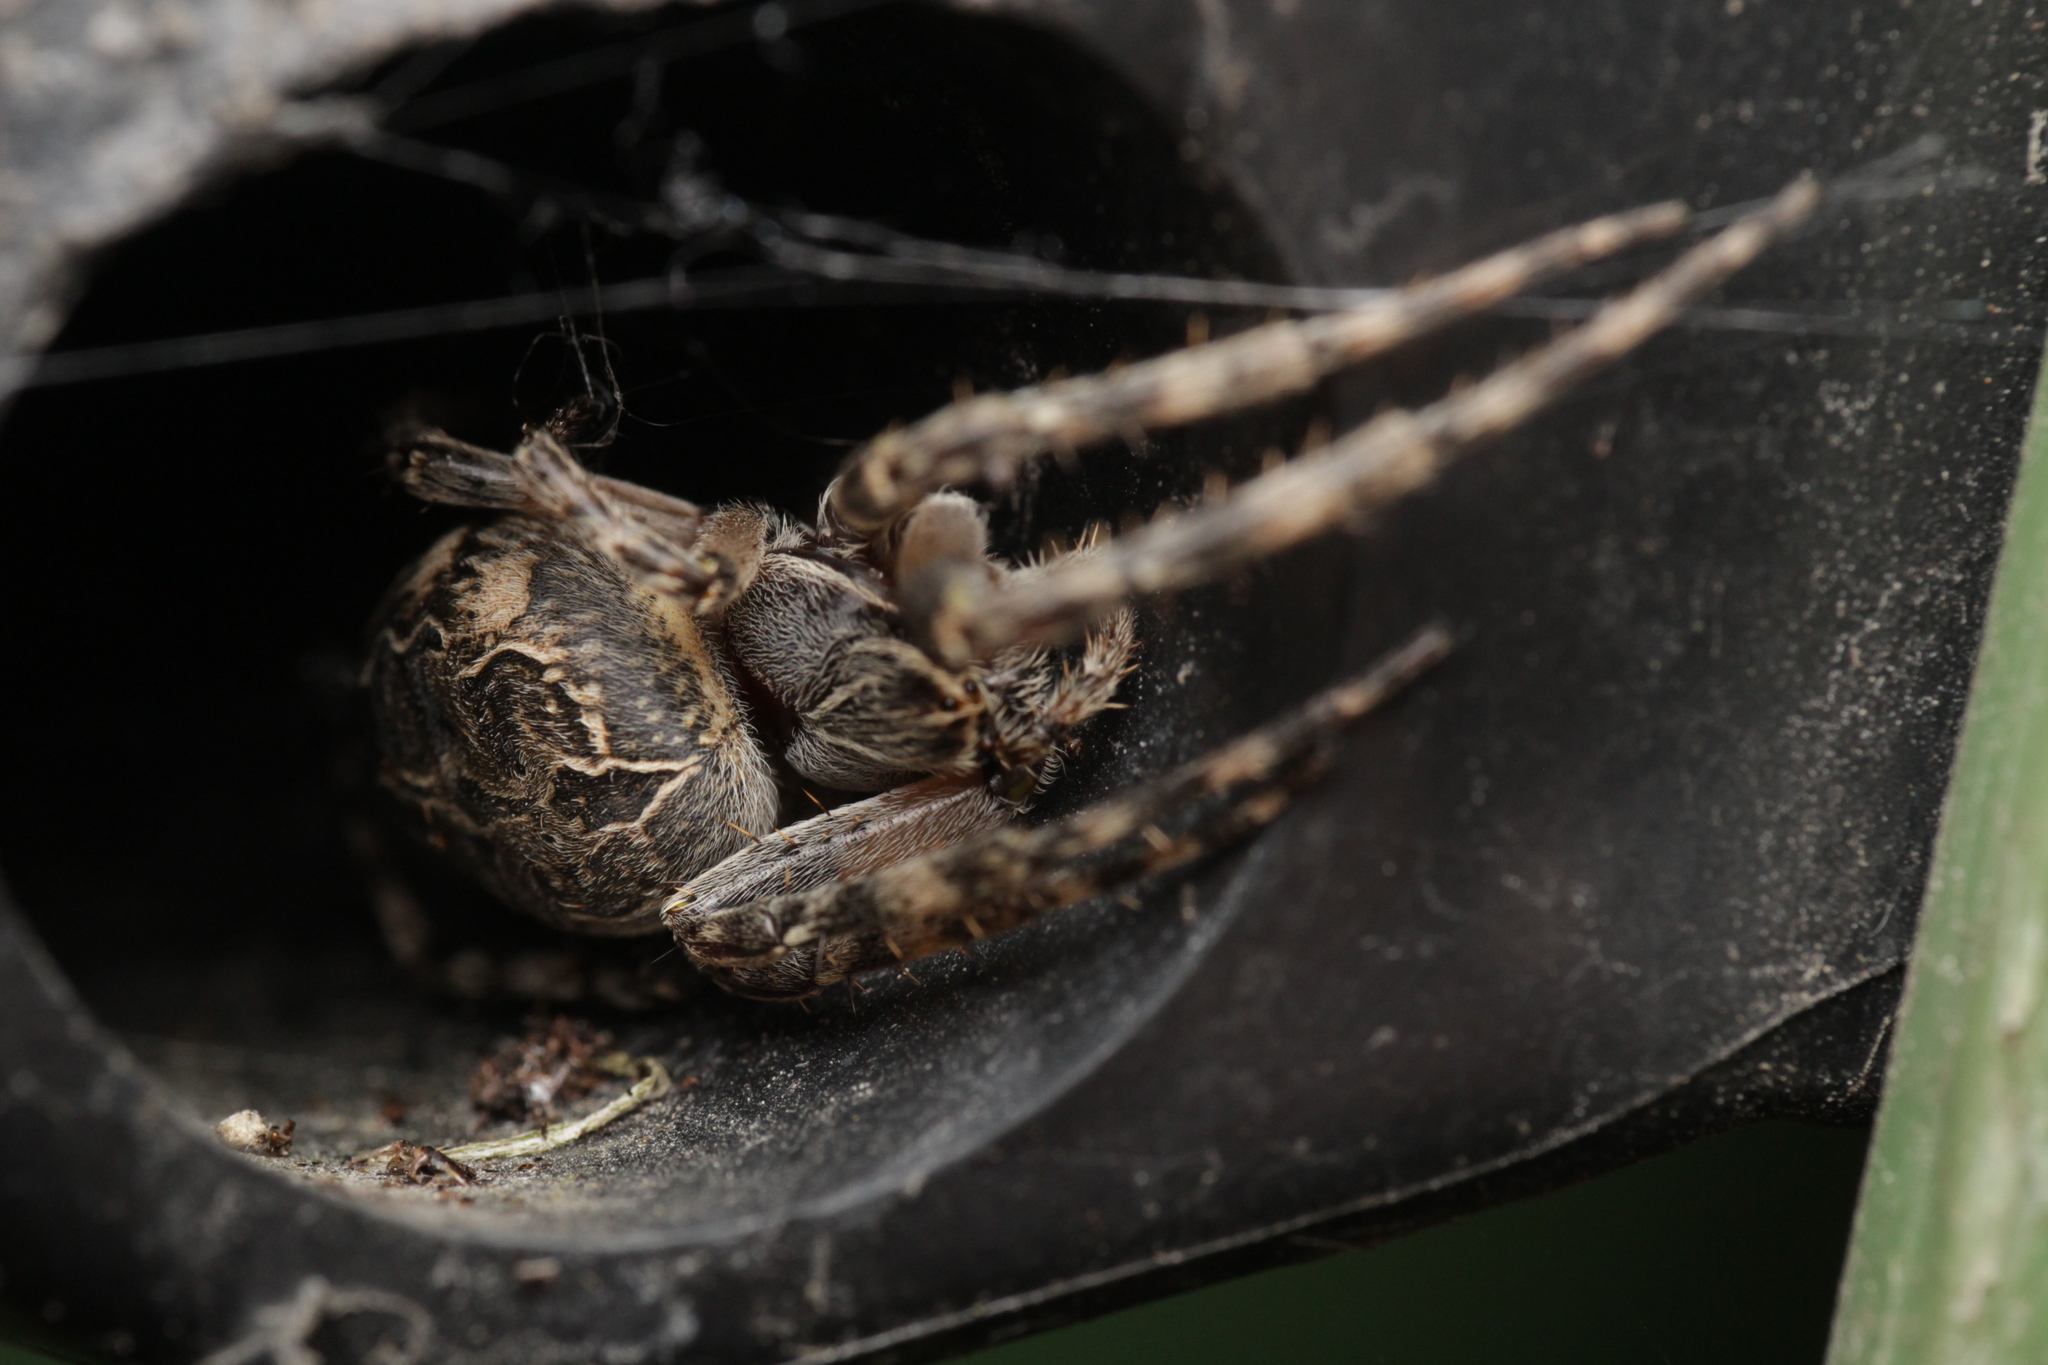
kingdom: Animalia
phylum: Arthropoda
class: Arachnida
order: Araneae
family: Araneidae
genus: Larinioides
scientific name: Larinioides sclopetarius
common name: Bridge orbweaver
